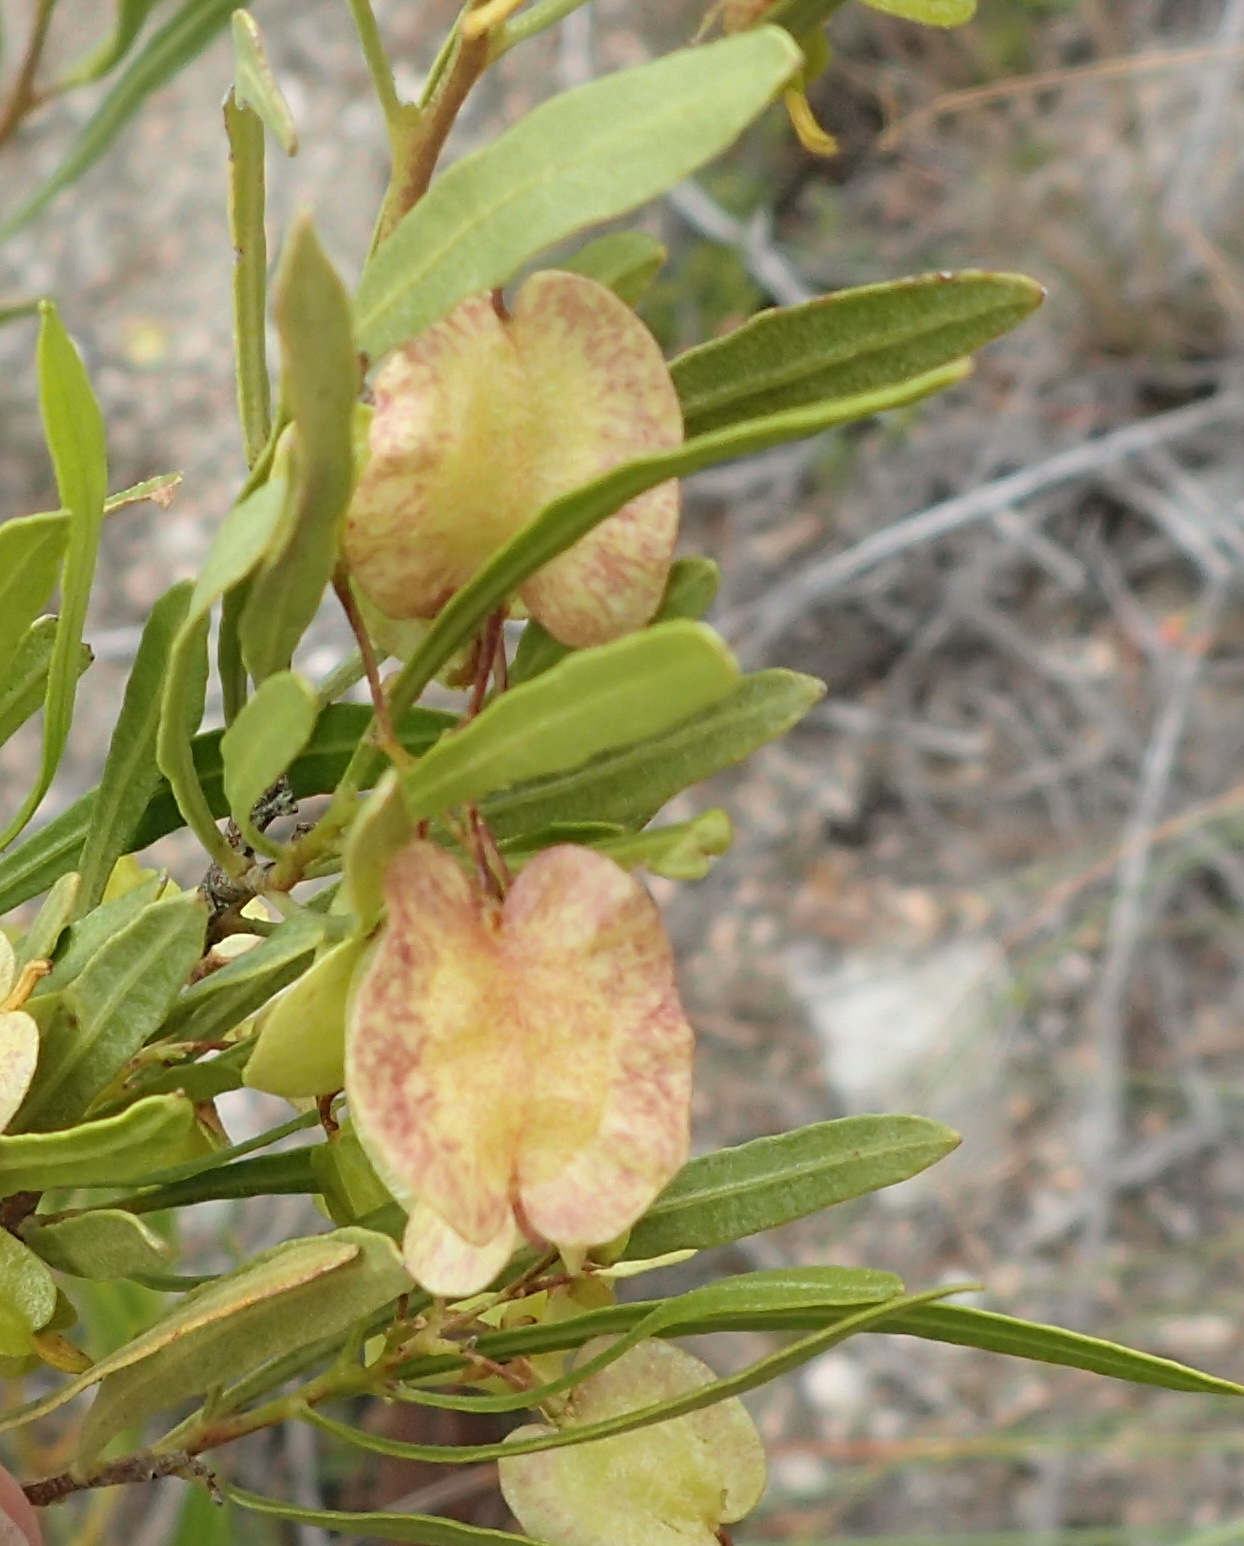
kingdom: Plantae
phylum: Tracheophyta
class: Magnoliopsida
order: Sapindales
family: Sapindaceae
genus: Dodonaea
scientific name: Dodonaea viscosa
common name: Hopbush
